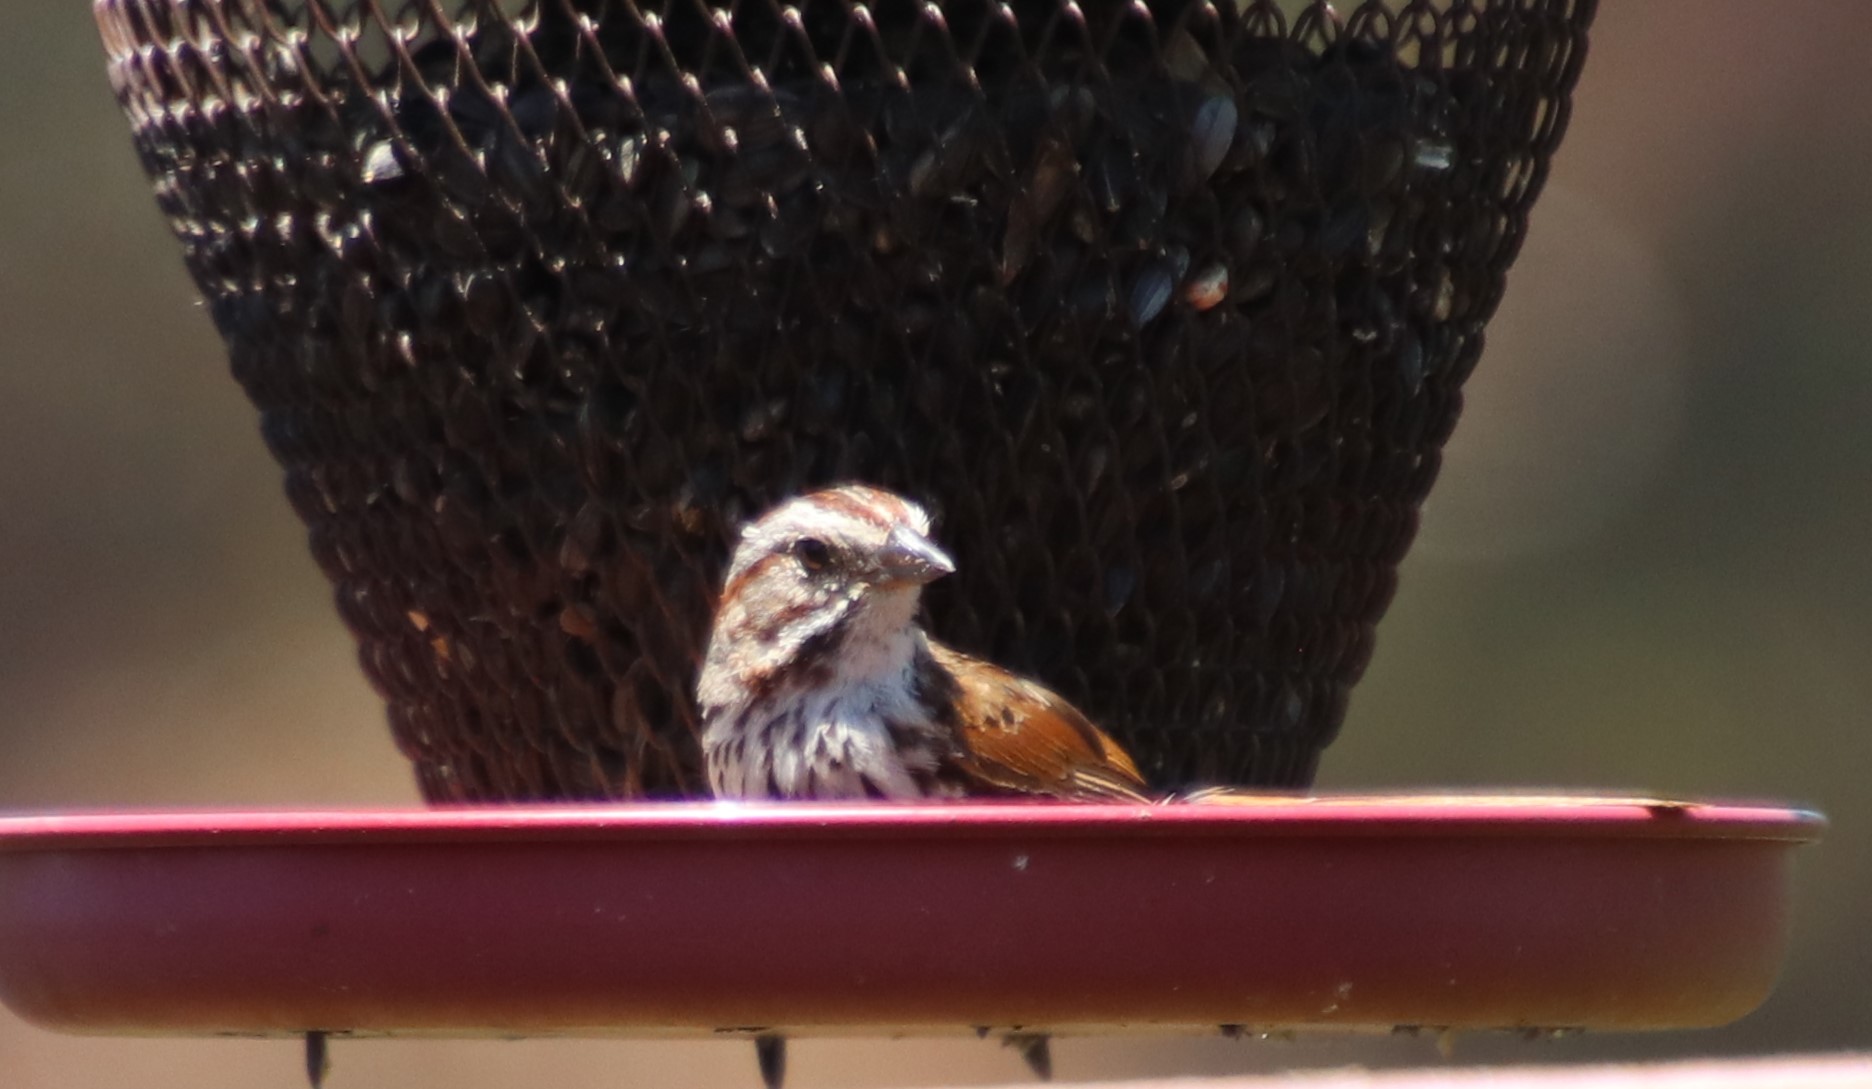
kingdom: Animalia
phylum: Chordata
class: Aves
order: Passeriformes
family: Passerellidae
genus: Melospiza
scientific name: Melospiza melodia
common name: Song sparrow
